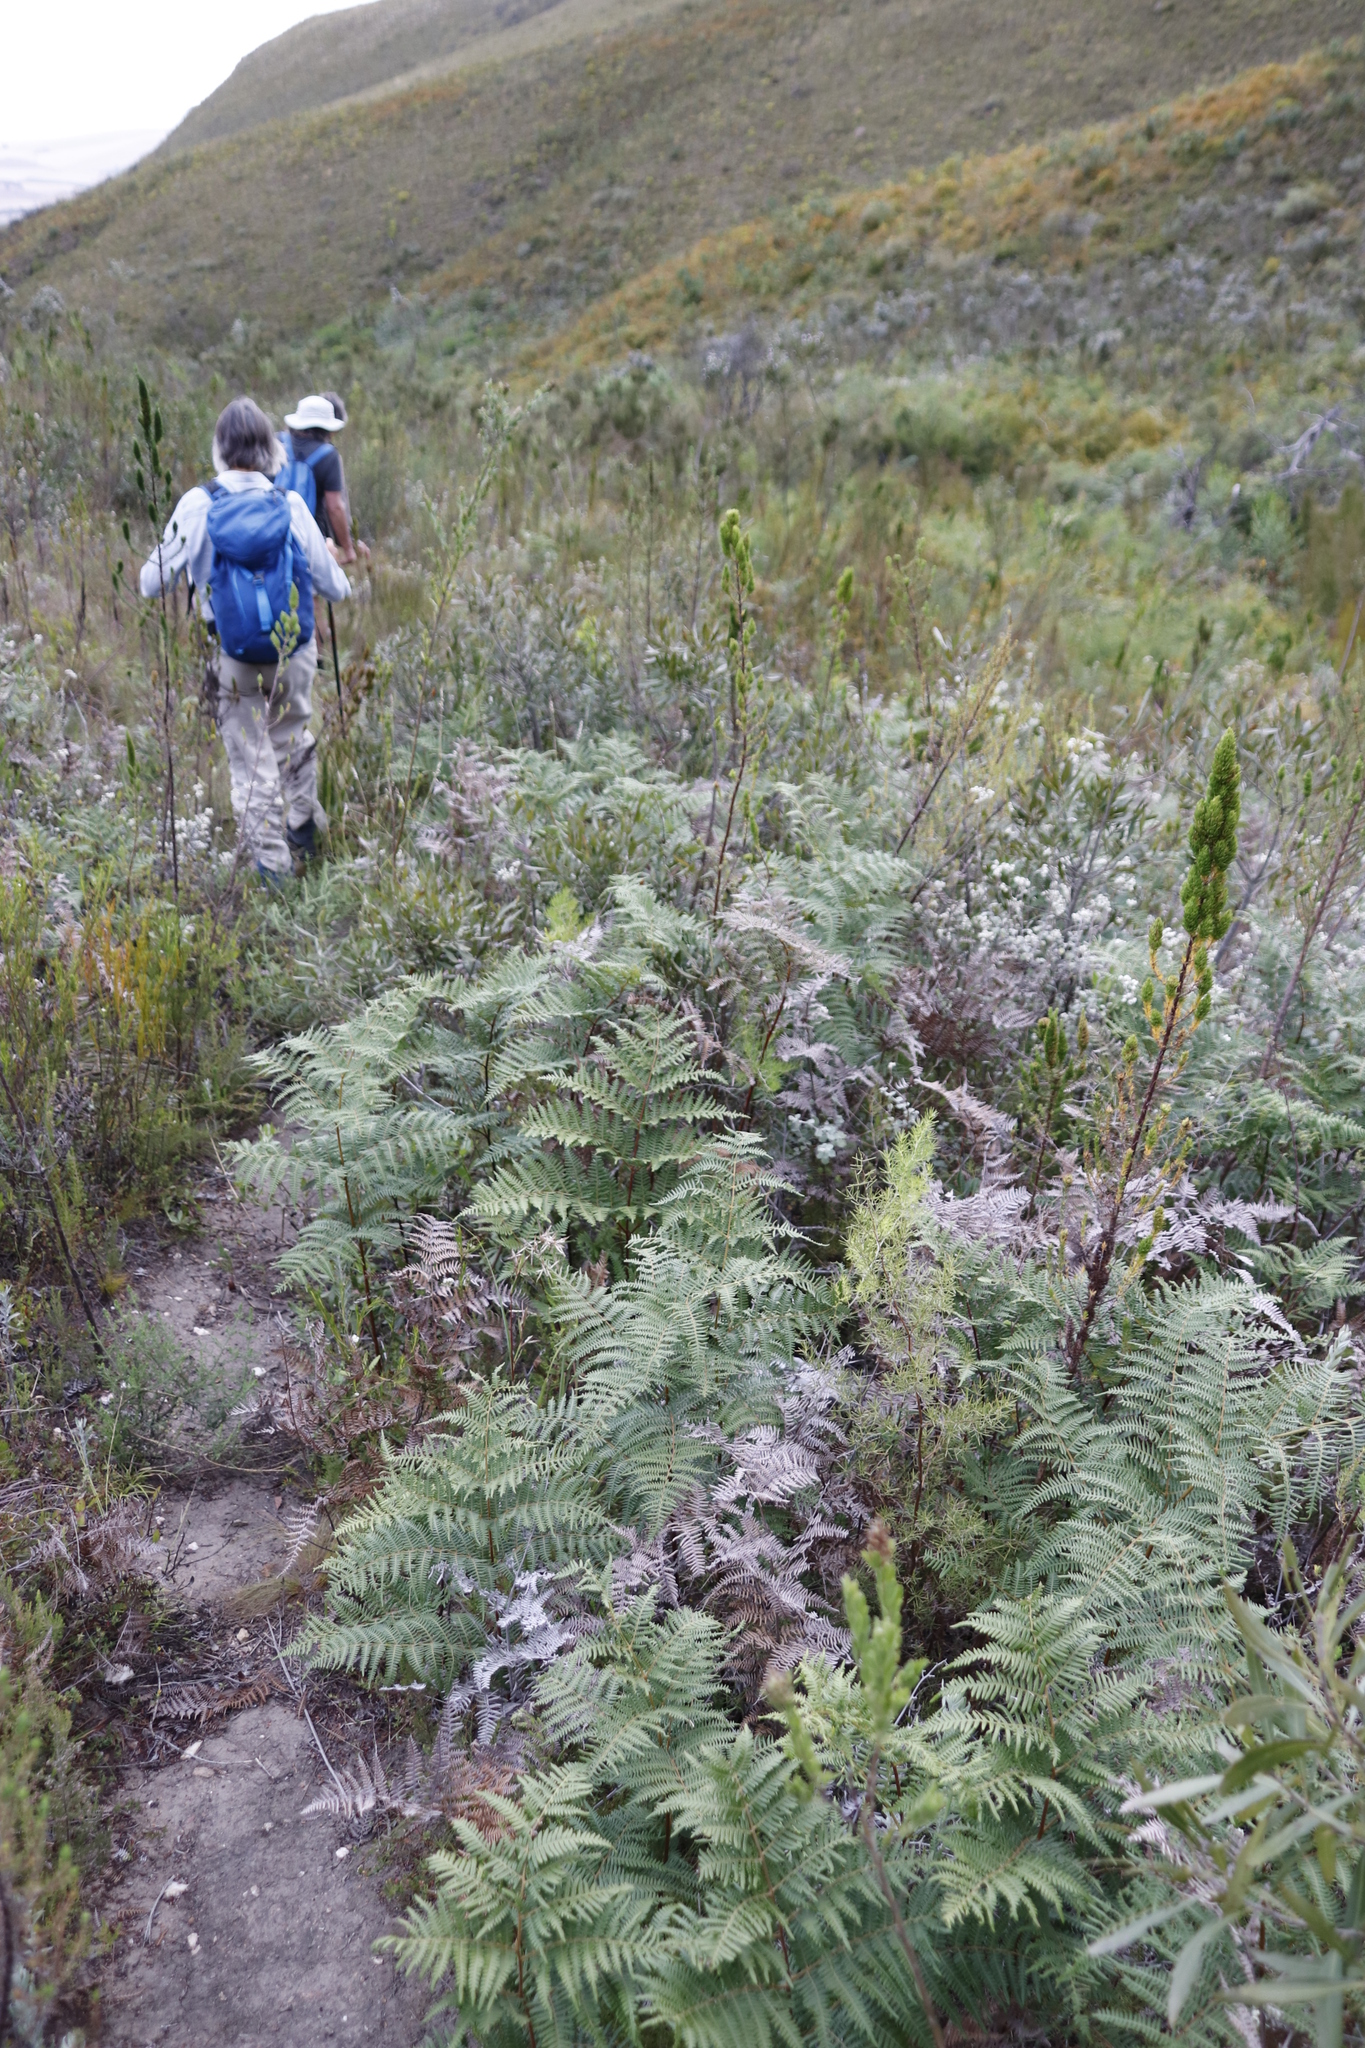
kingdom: Plantae
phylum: Tracheophyta
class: Polypodiopsida
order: Polypodiales
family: Dennstaedtiaceae
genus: Pteridium
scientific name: Pteridium aquilinum
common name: Bracken
